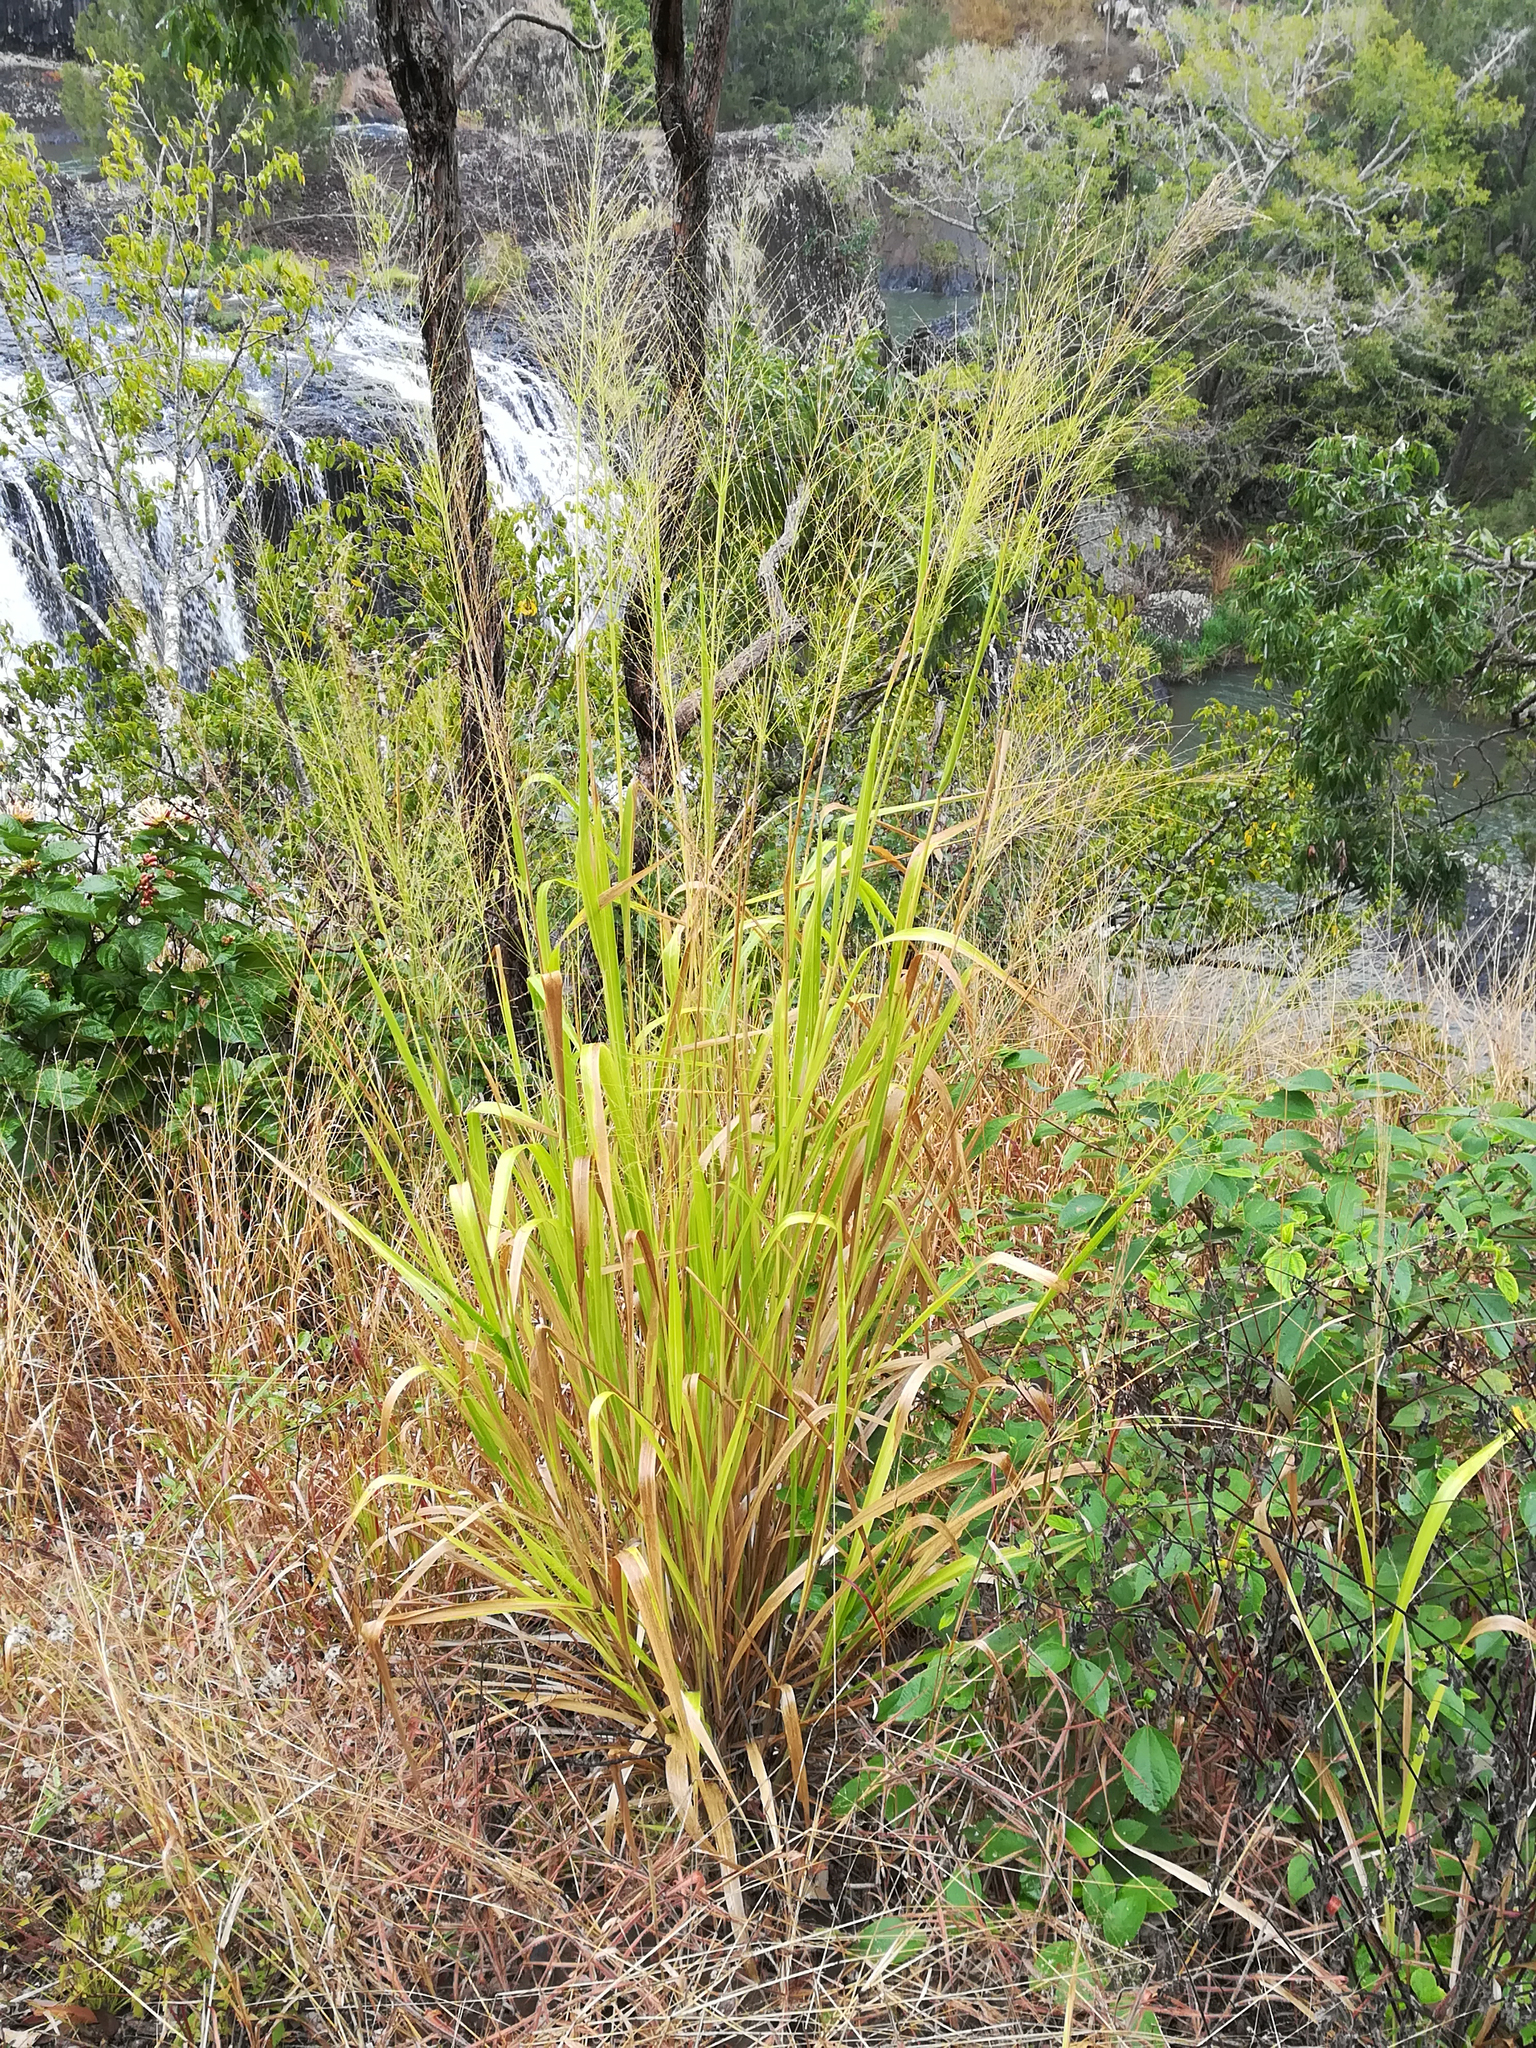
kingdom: Plantae
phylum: Tracheophyta
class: Liliopsida
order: Poales
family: Poaceae
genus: Megathyrsus
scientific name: Megathyrsus maximus
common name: Guineagrass
